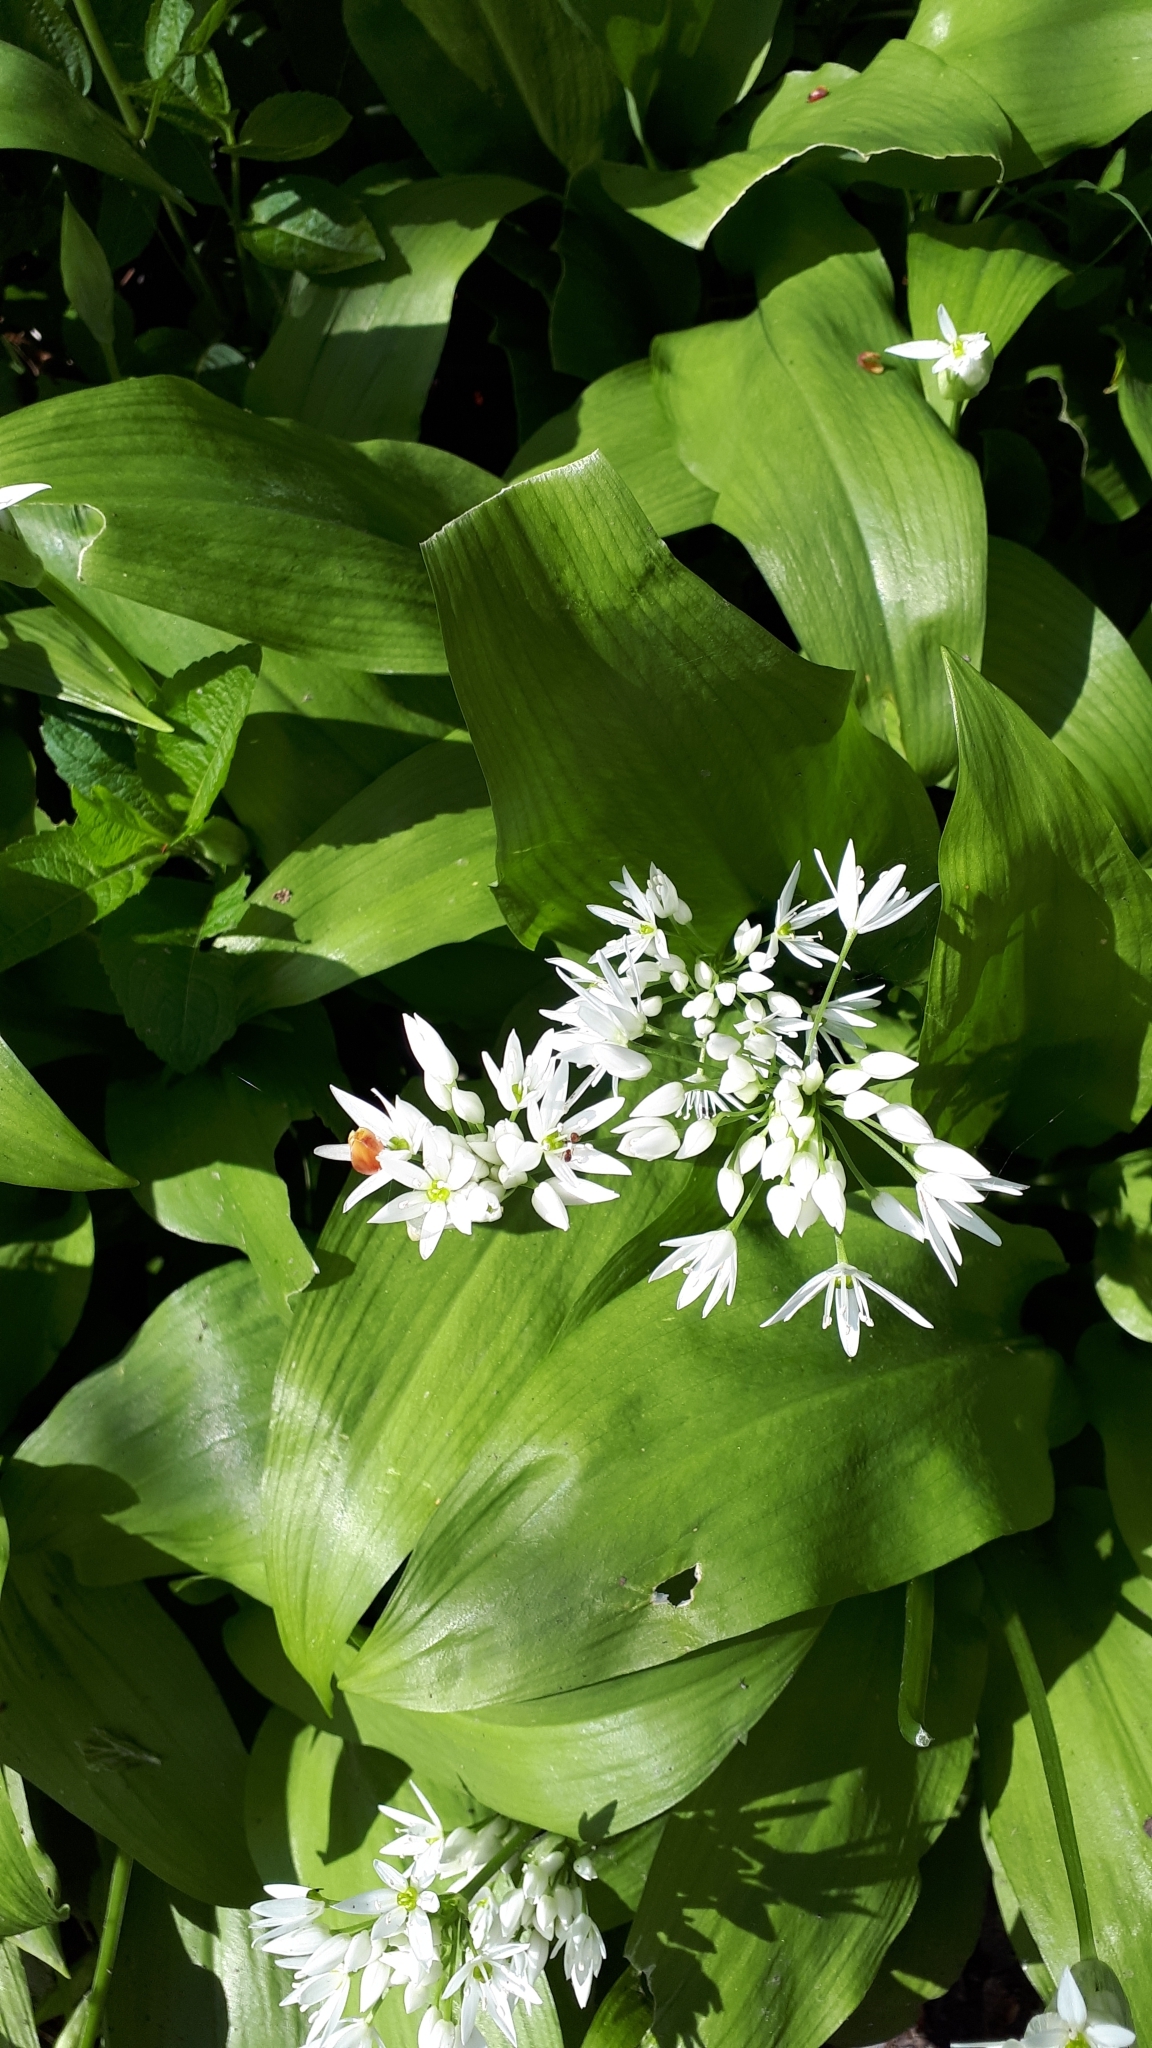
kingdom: Plantae
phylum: Tracheophyta
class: Liliopsida
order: Asparagales
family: Amaryllidaceae
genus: Allium
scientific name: Allium ursinum
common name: Ramsons
